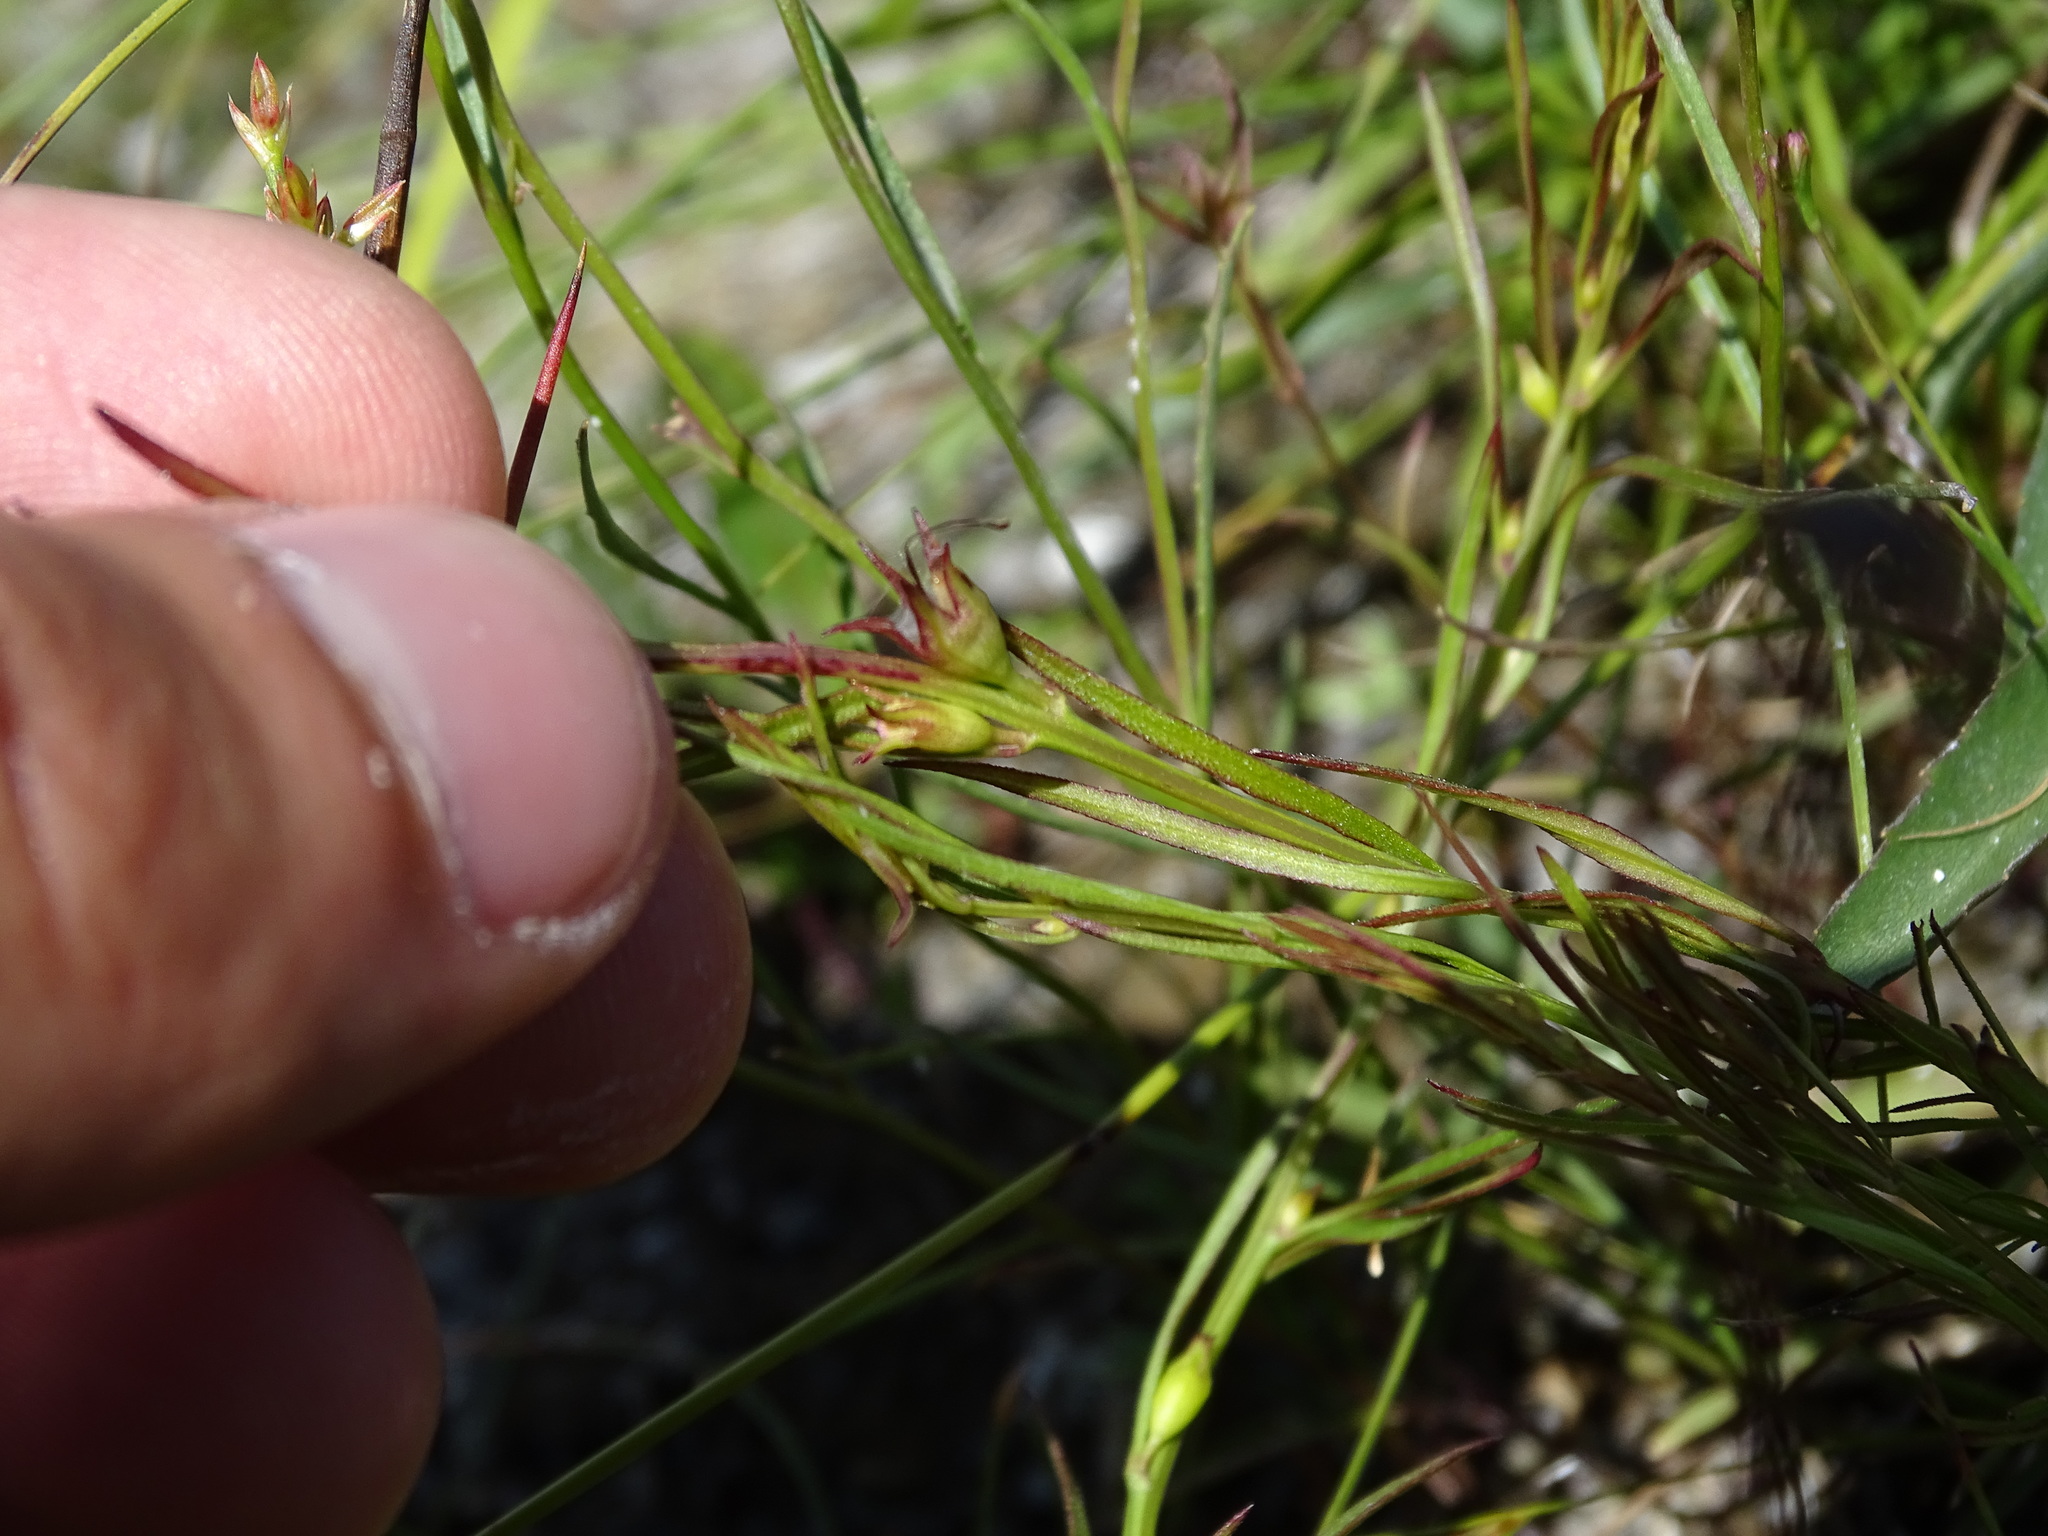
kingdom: Plantae
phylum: Tracheophyta
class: Magnoliopsida
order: Lamiales
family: Orobanchaceae
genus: Agalinis
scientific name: Agalinis purpurea
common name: Purple false foxglove
